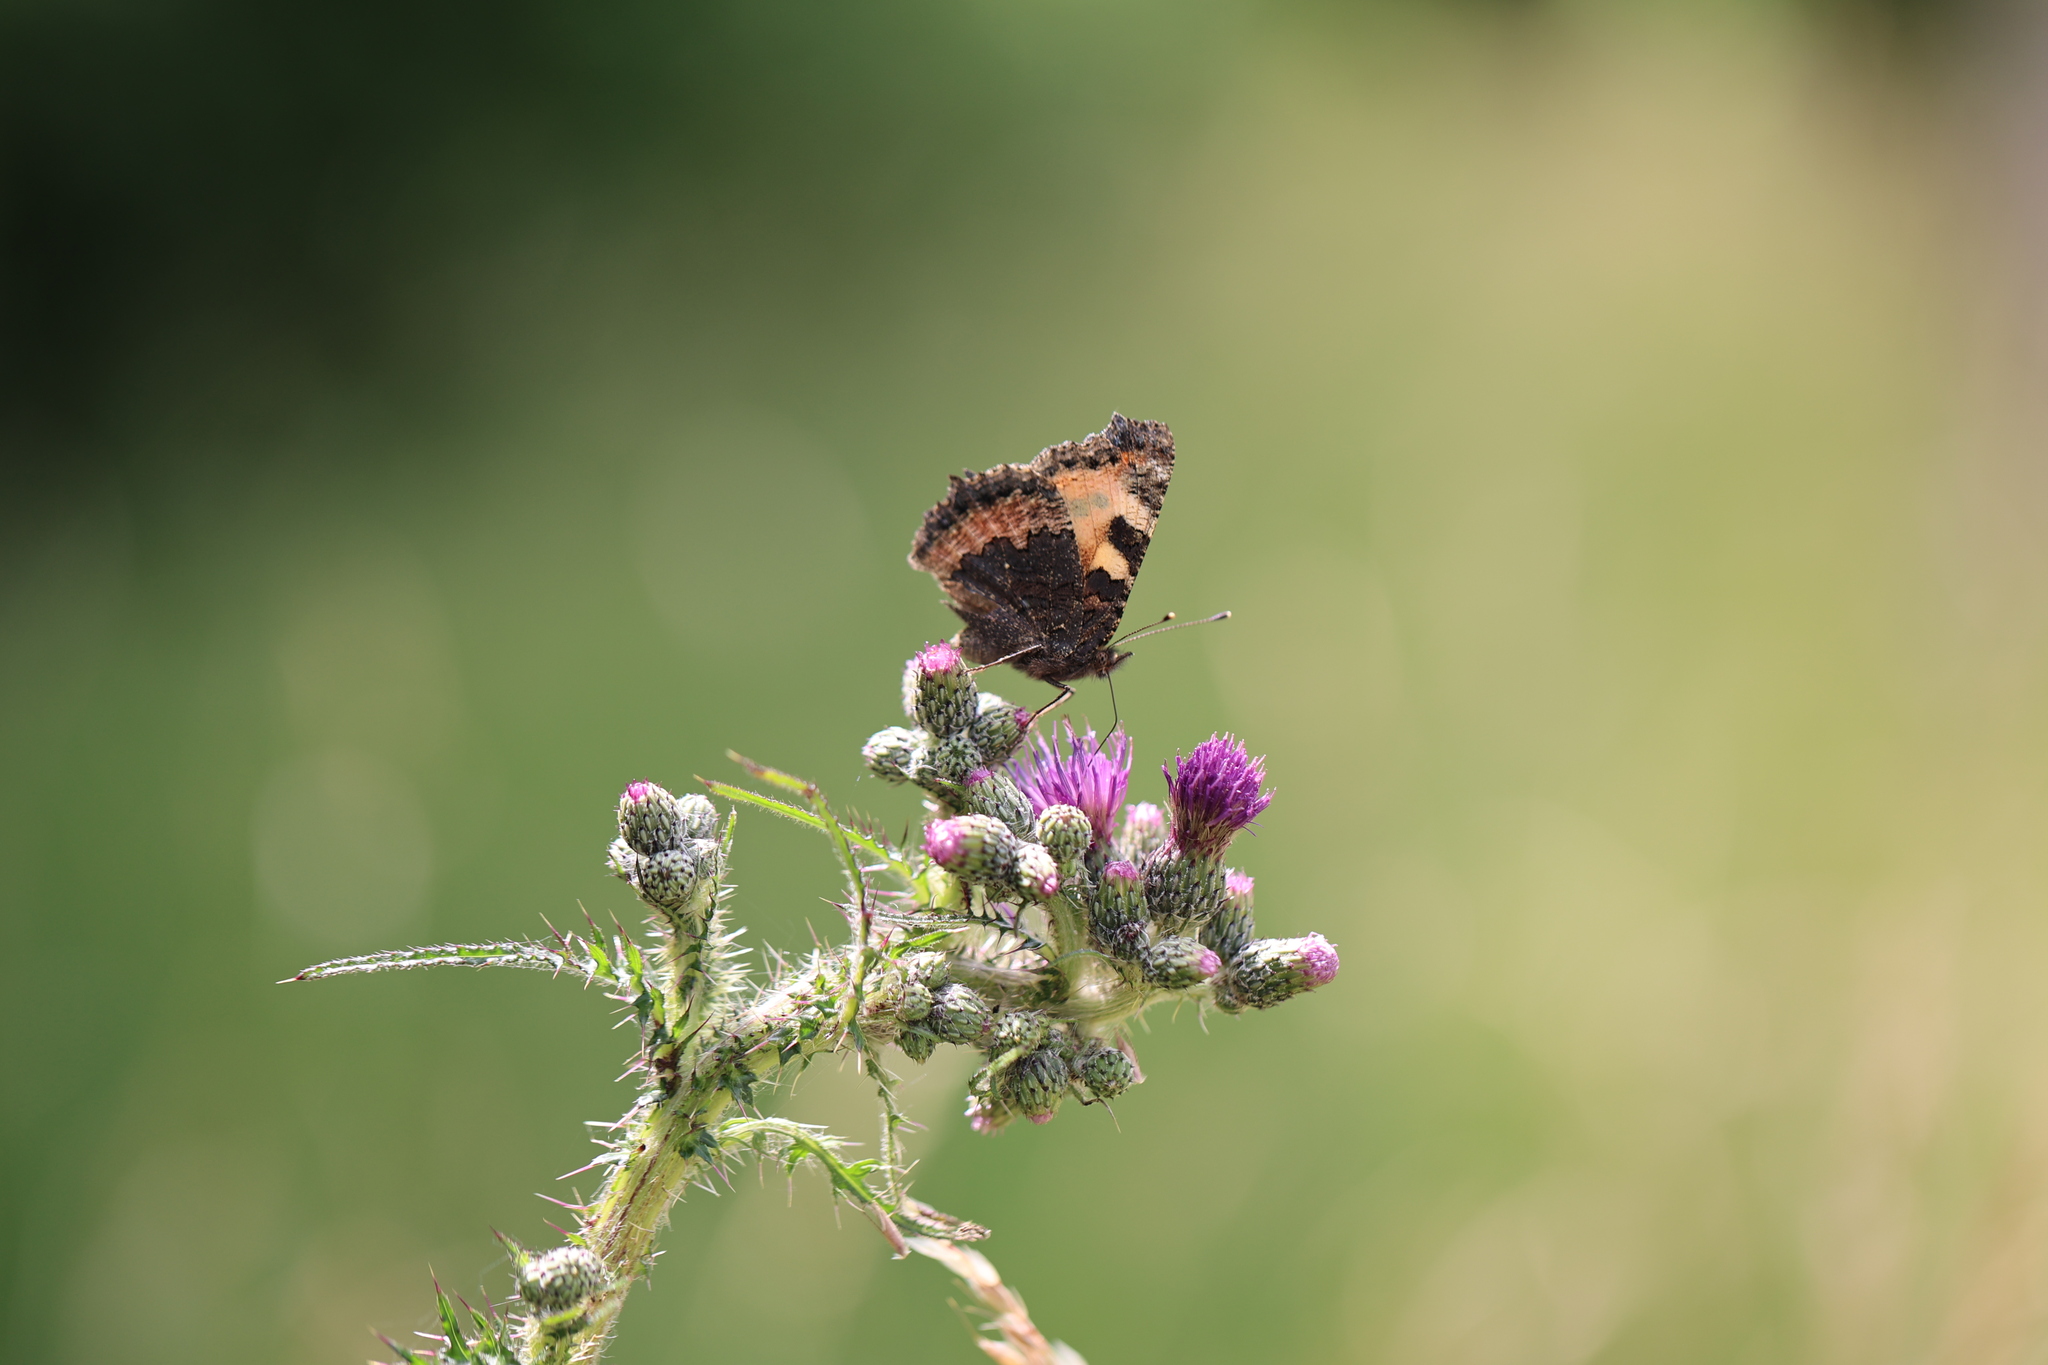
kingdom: Animalia
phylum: Arthropoda
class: Insecta
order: Lepidoptera
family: Nymphalidae
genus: Aglais
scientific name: Aglais urticae
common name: Small tortoiseshell
